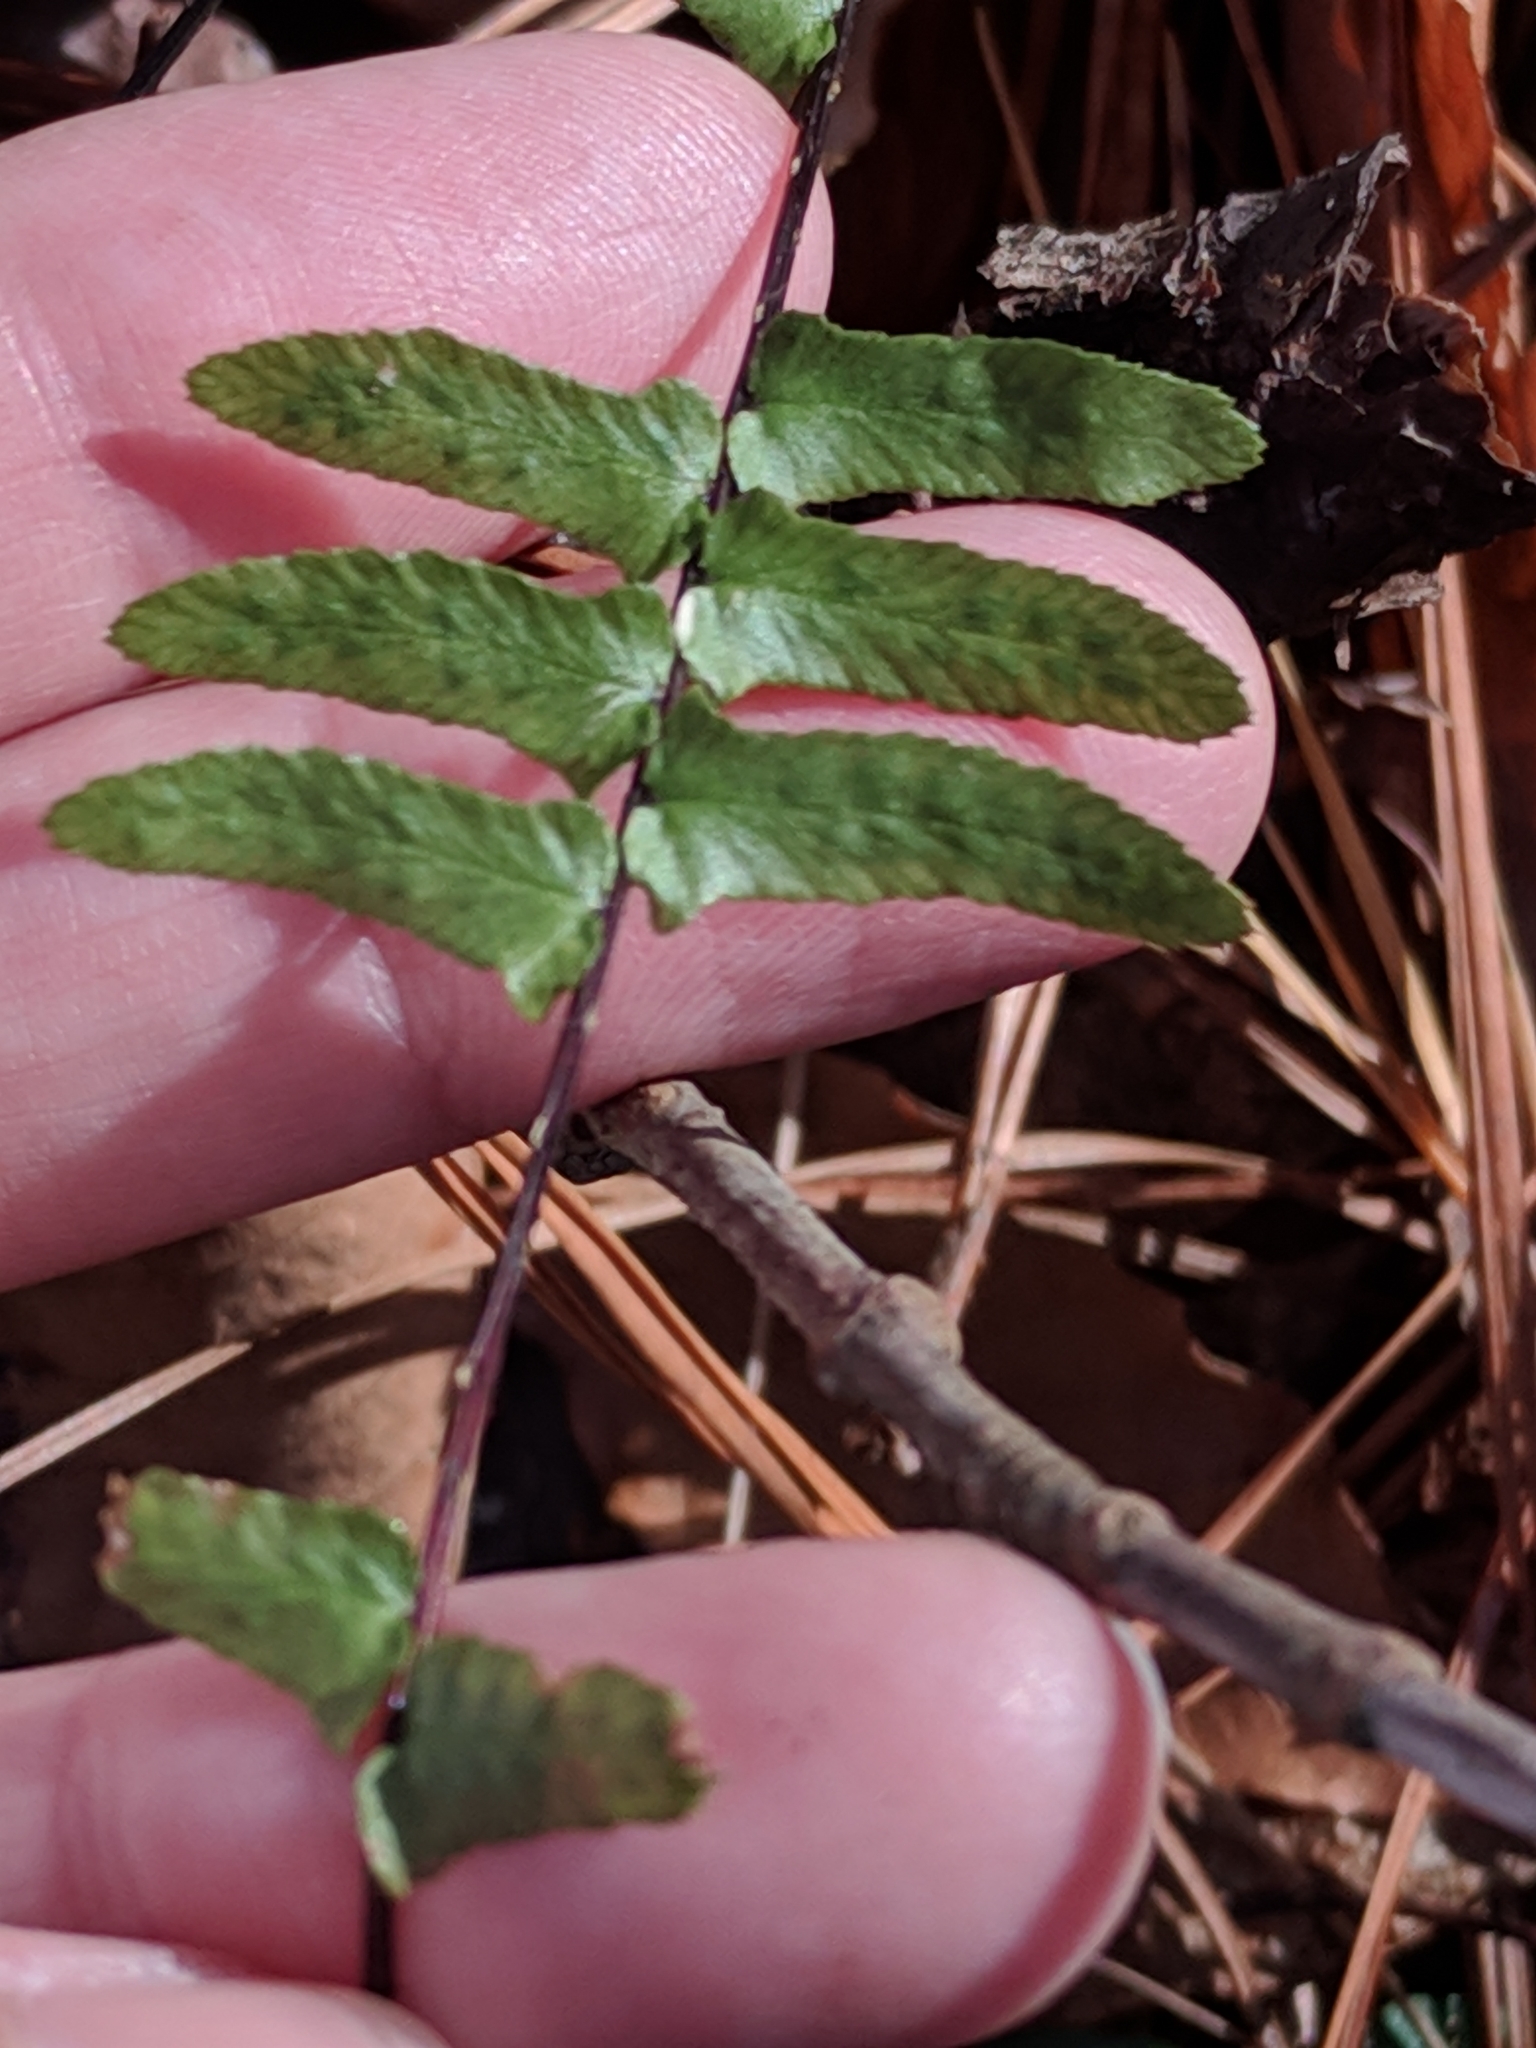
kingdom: Plantae
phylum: Tracheophyta
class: Polypodiopsida
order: Polypodiales
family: Aspleniaceae
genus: Asplenium
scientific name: Asplenium platyneuron
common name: Ebony spleenwort
